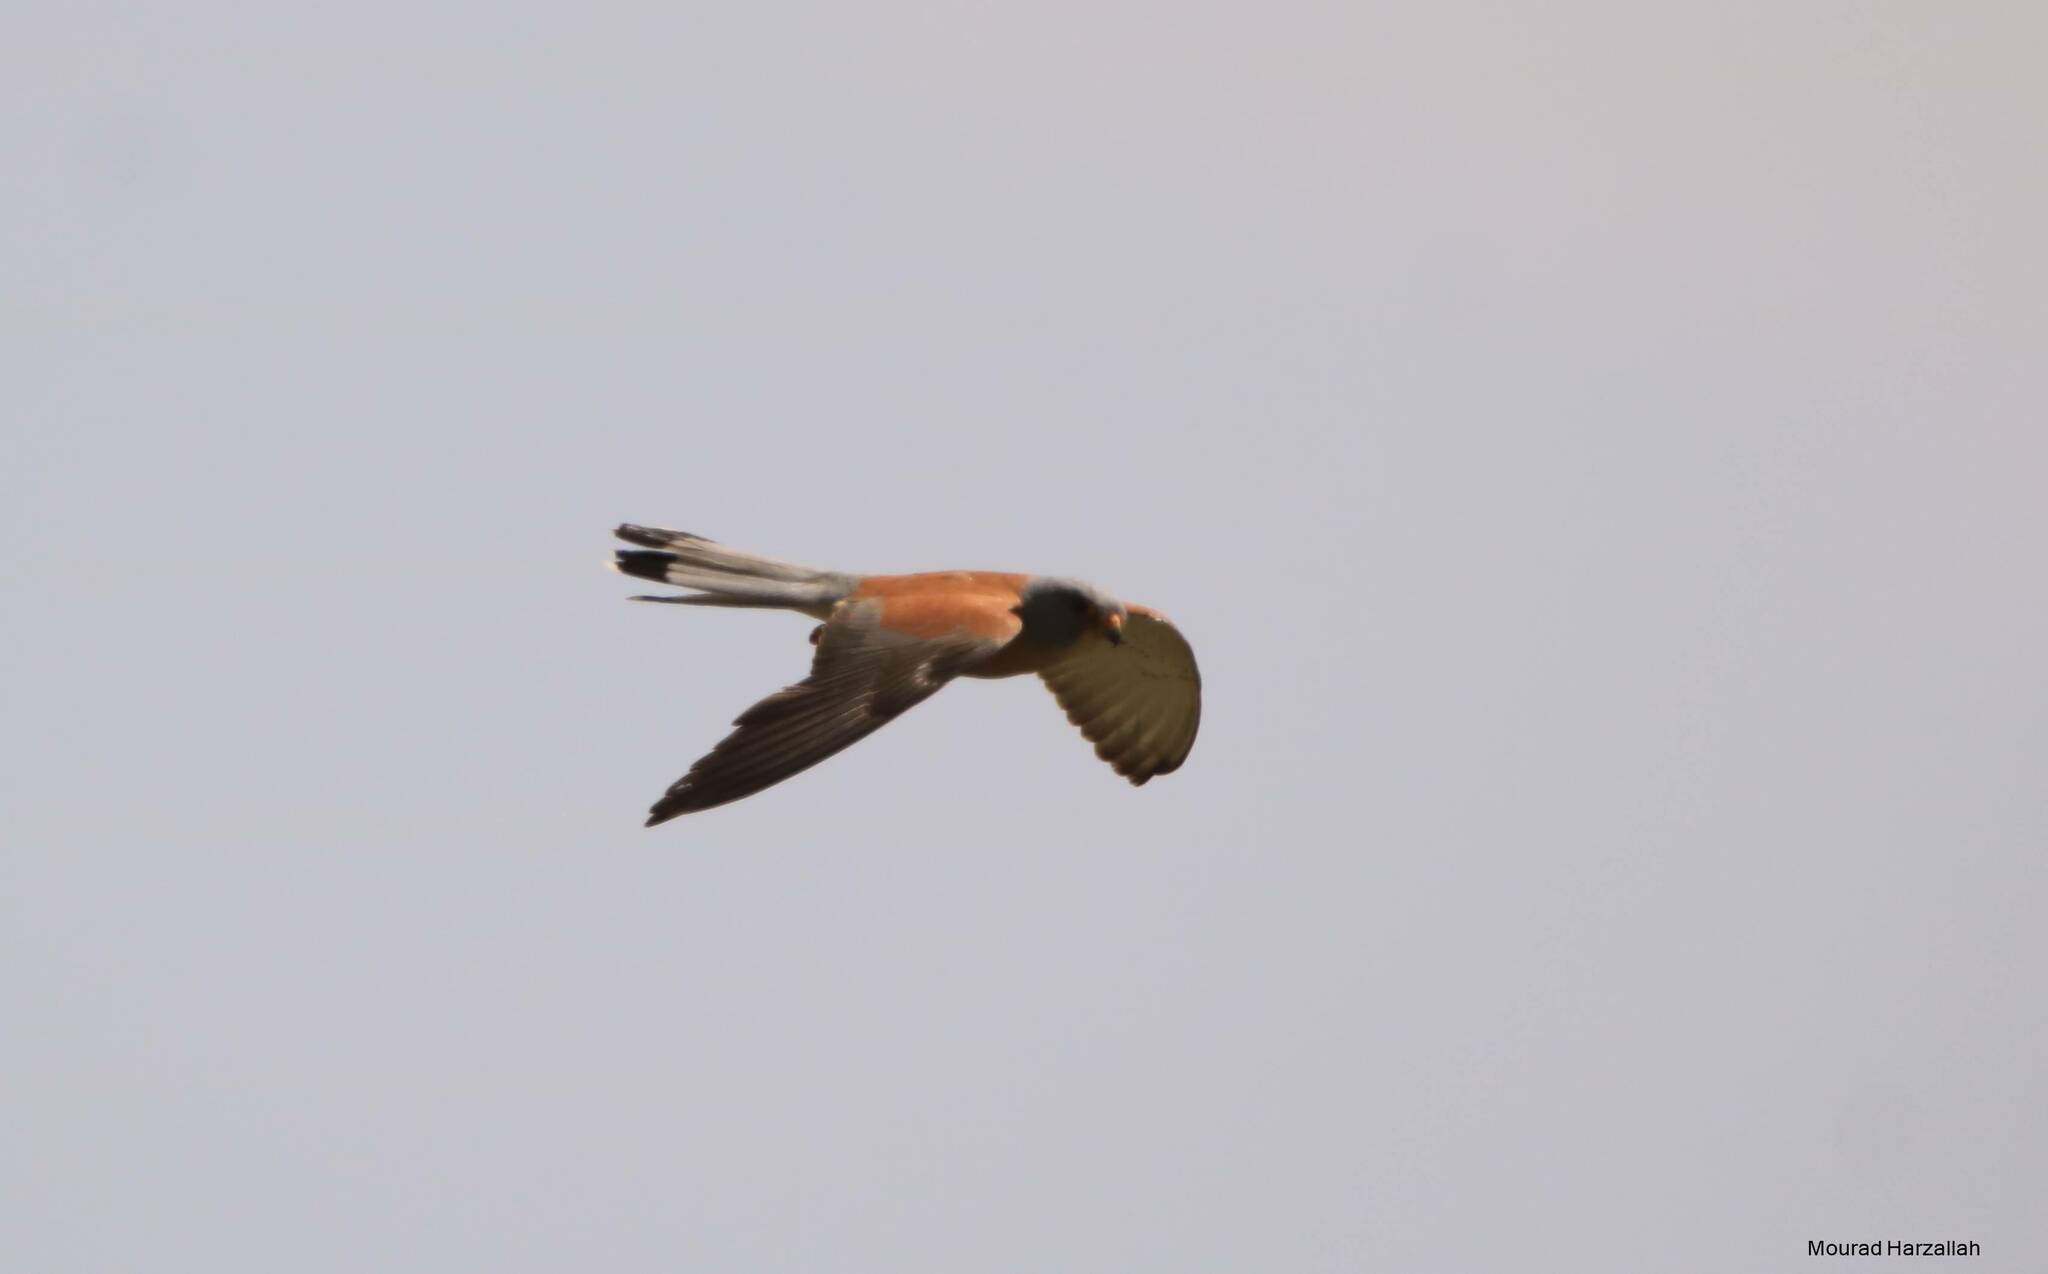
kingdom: Animalia
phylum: Chordata
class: Aves
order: Falconiformes
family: Falconidae
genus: Falco
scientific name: Falco naumanni
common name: Lesser kestrel
